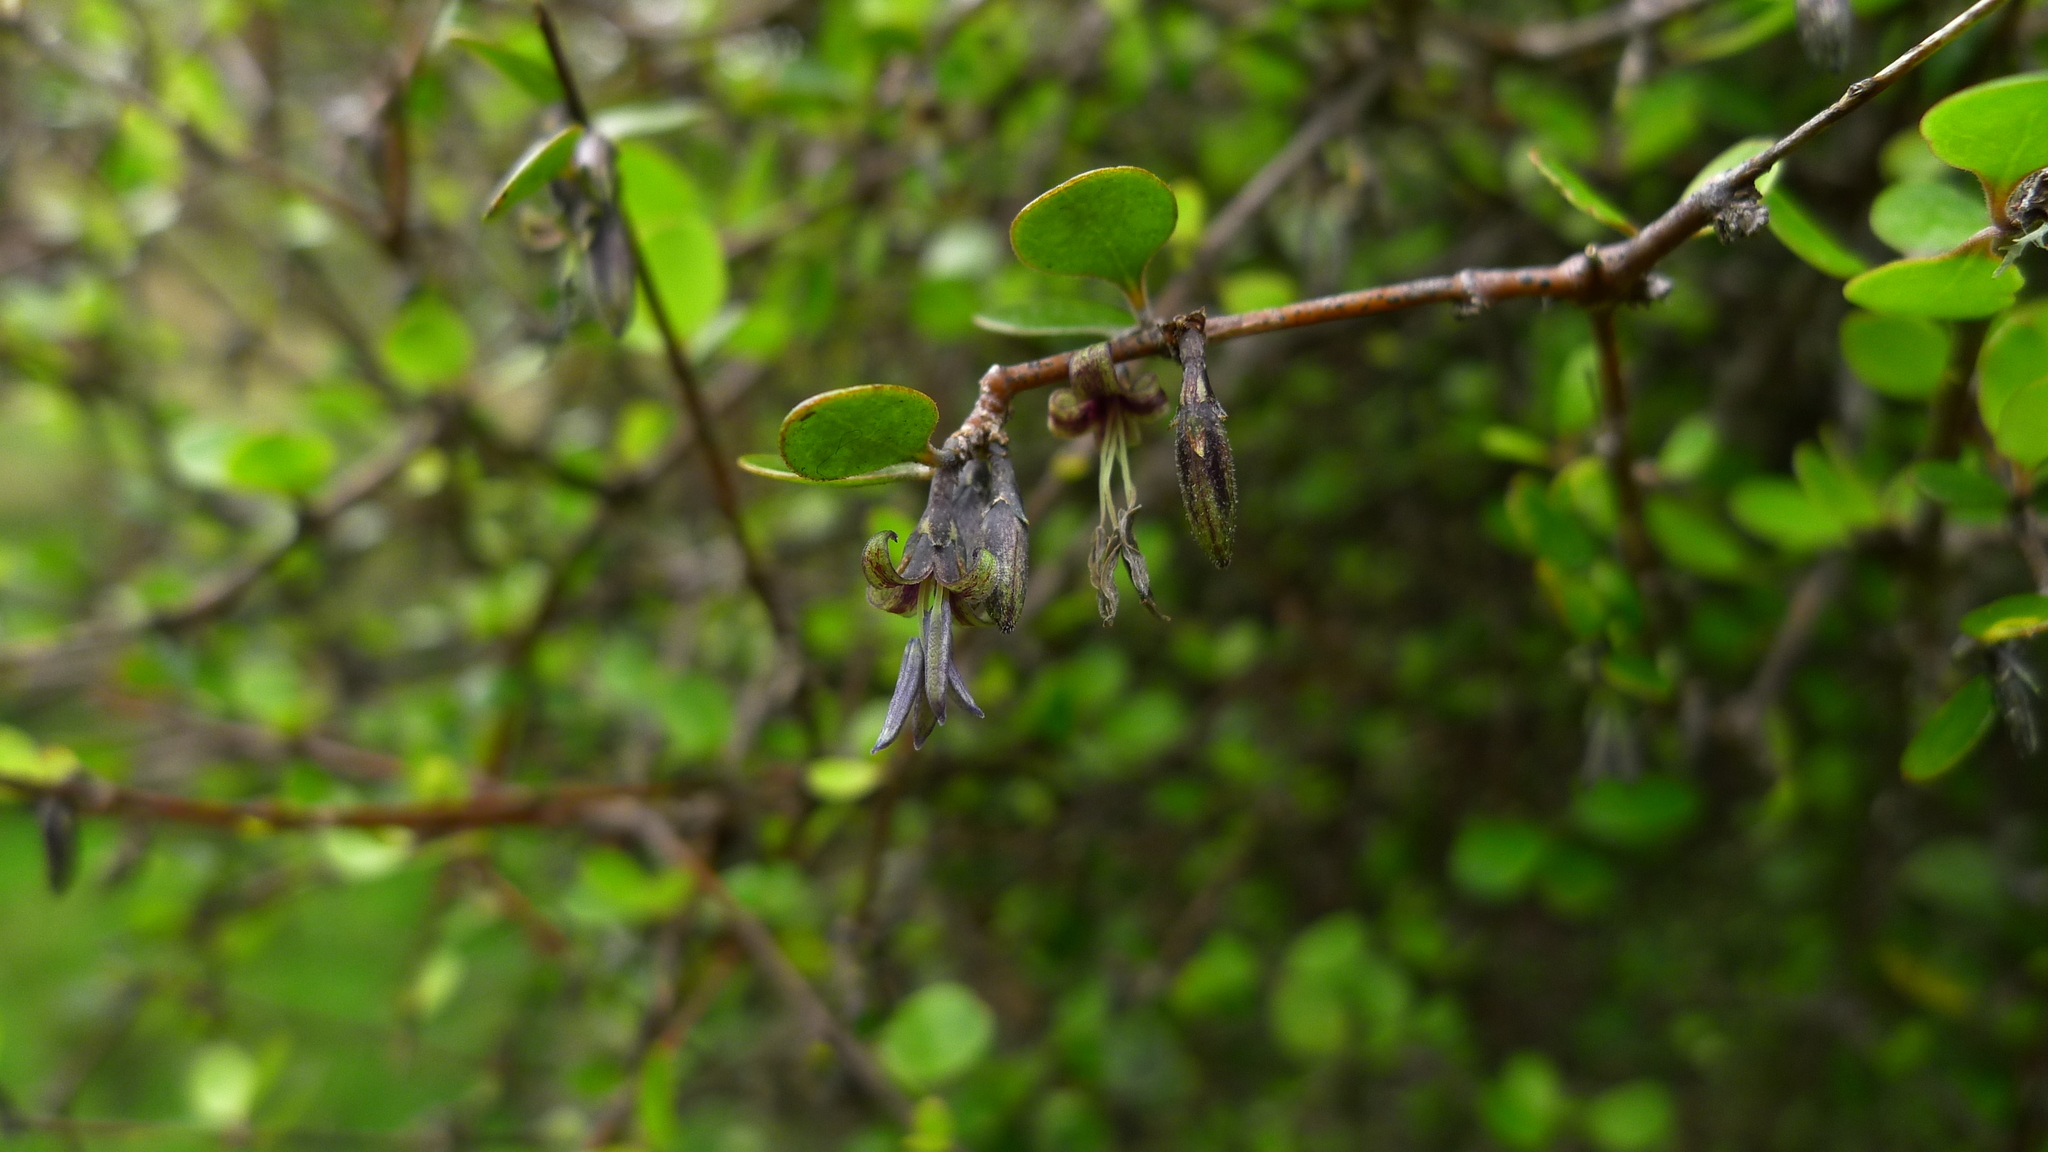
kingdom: Plantae
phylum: Tracheophyta
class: Magnoliopsida
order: Gentianales
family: Rubiaceae
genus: Coprosma
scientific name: Coprosma crassifolia
